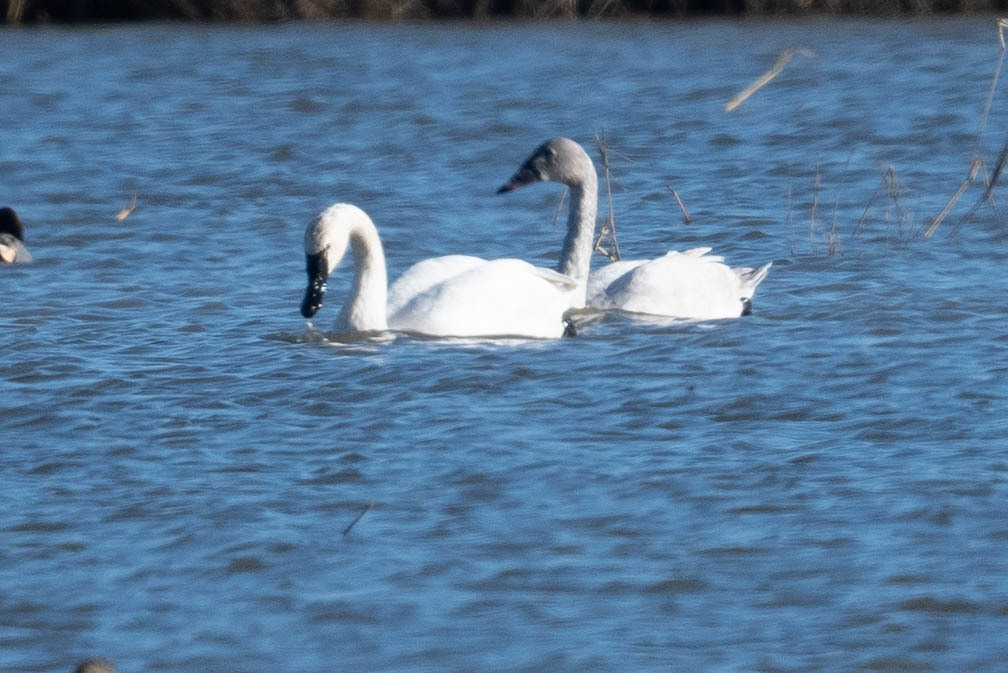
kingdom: Animalia
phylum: Chordata
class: Aves
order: Anseriformes
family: Anatidae
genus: Cygnus
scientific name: Cygnus columbianus
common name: Tundra swan
